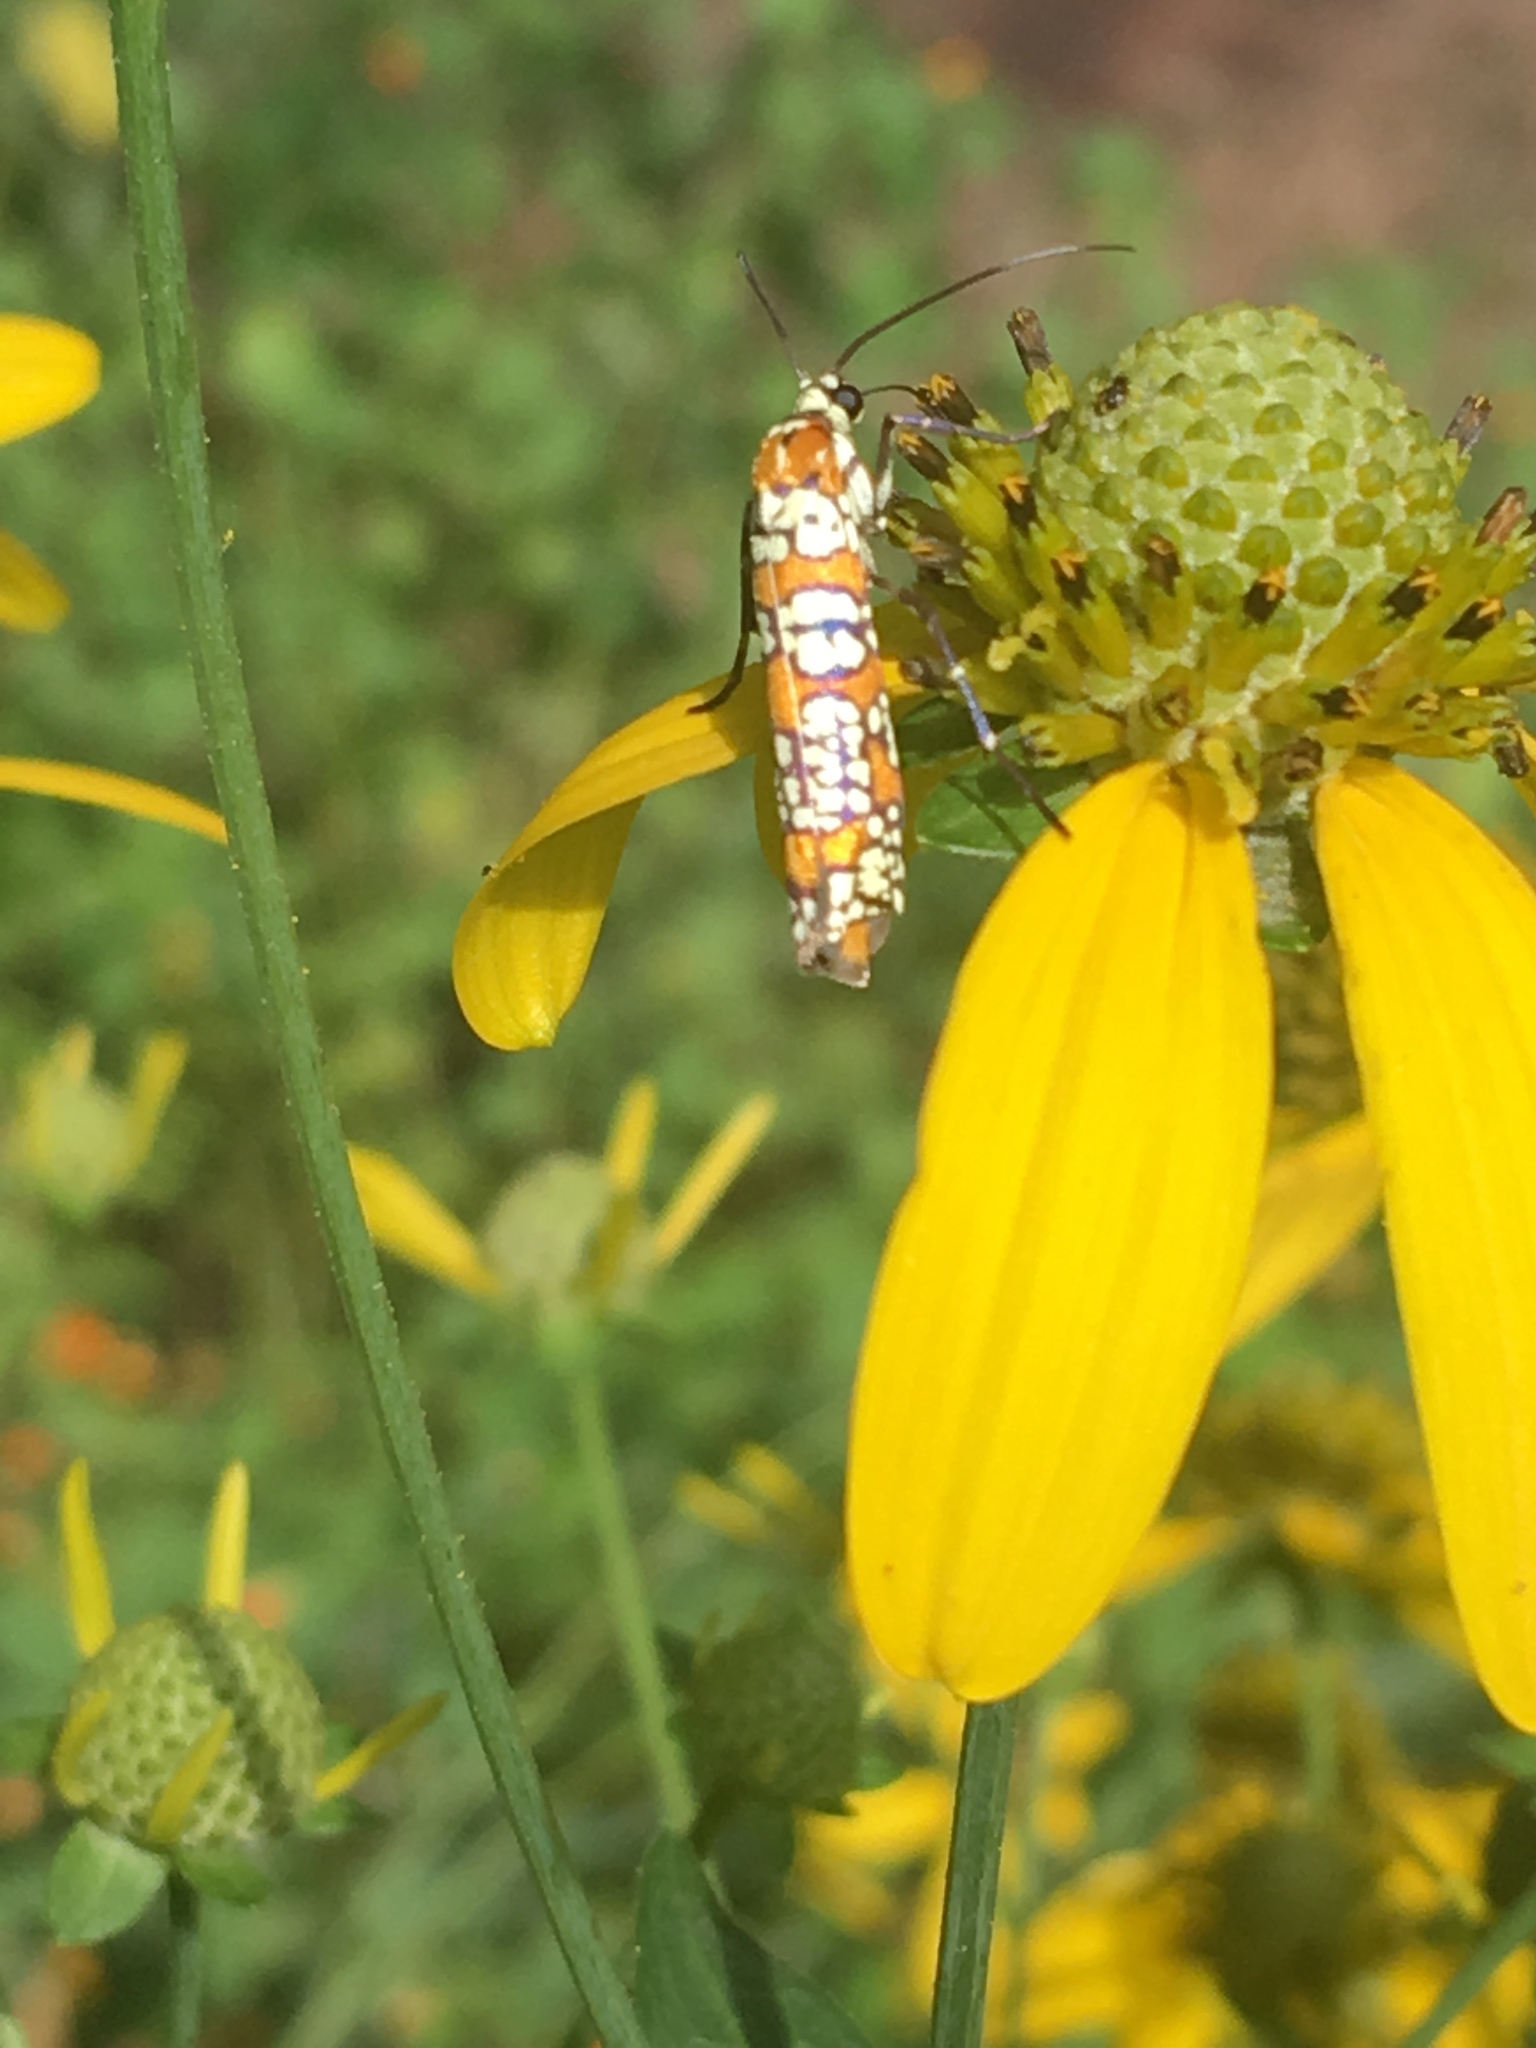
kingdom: Animalia
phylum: Arthropoda
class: Insecta
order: Lepidoptera
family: Attevidae
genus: Atteva
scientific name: Atteva punctella
